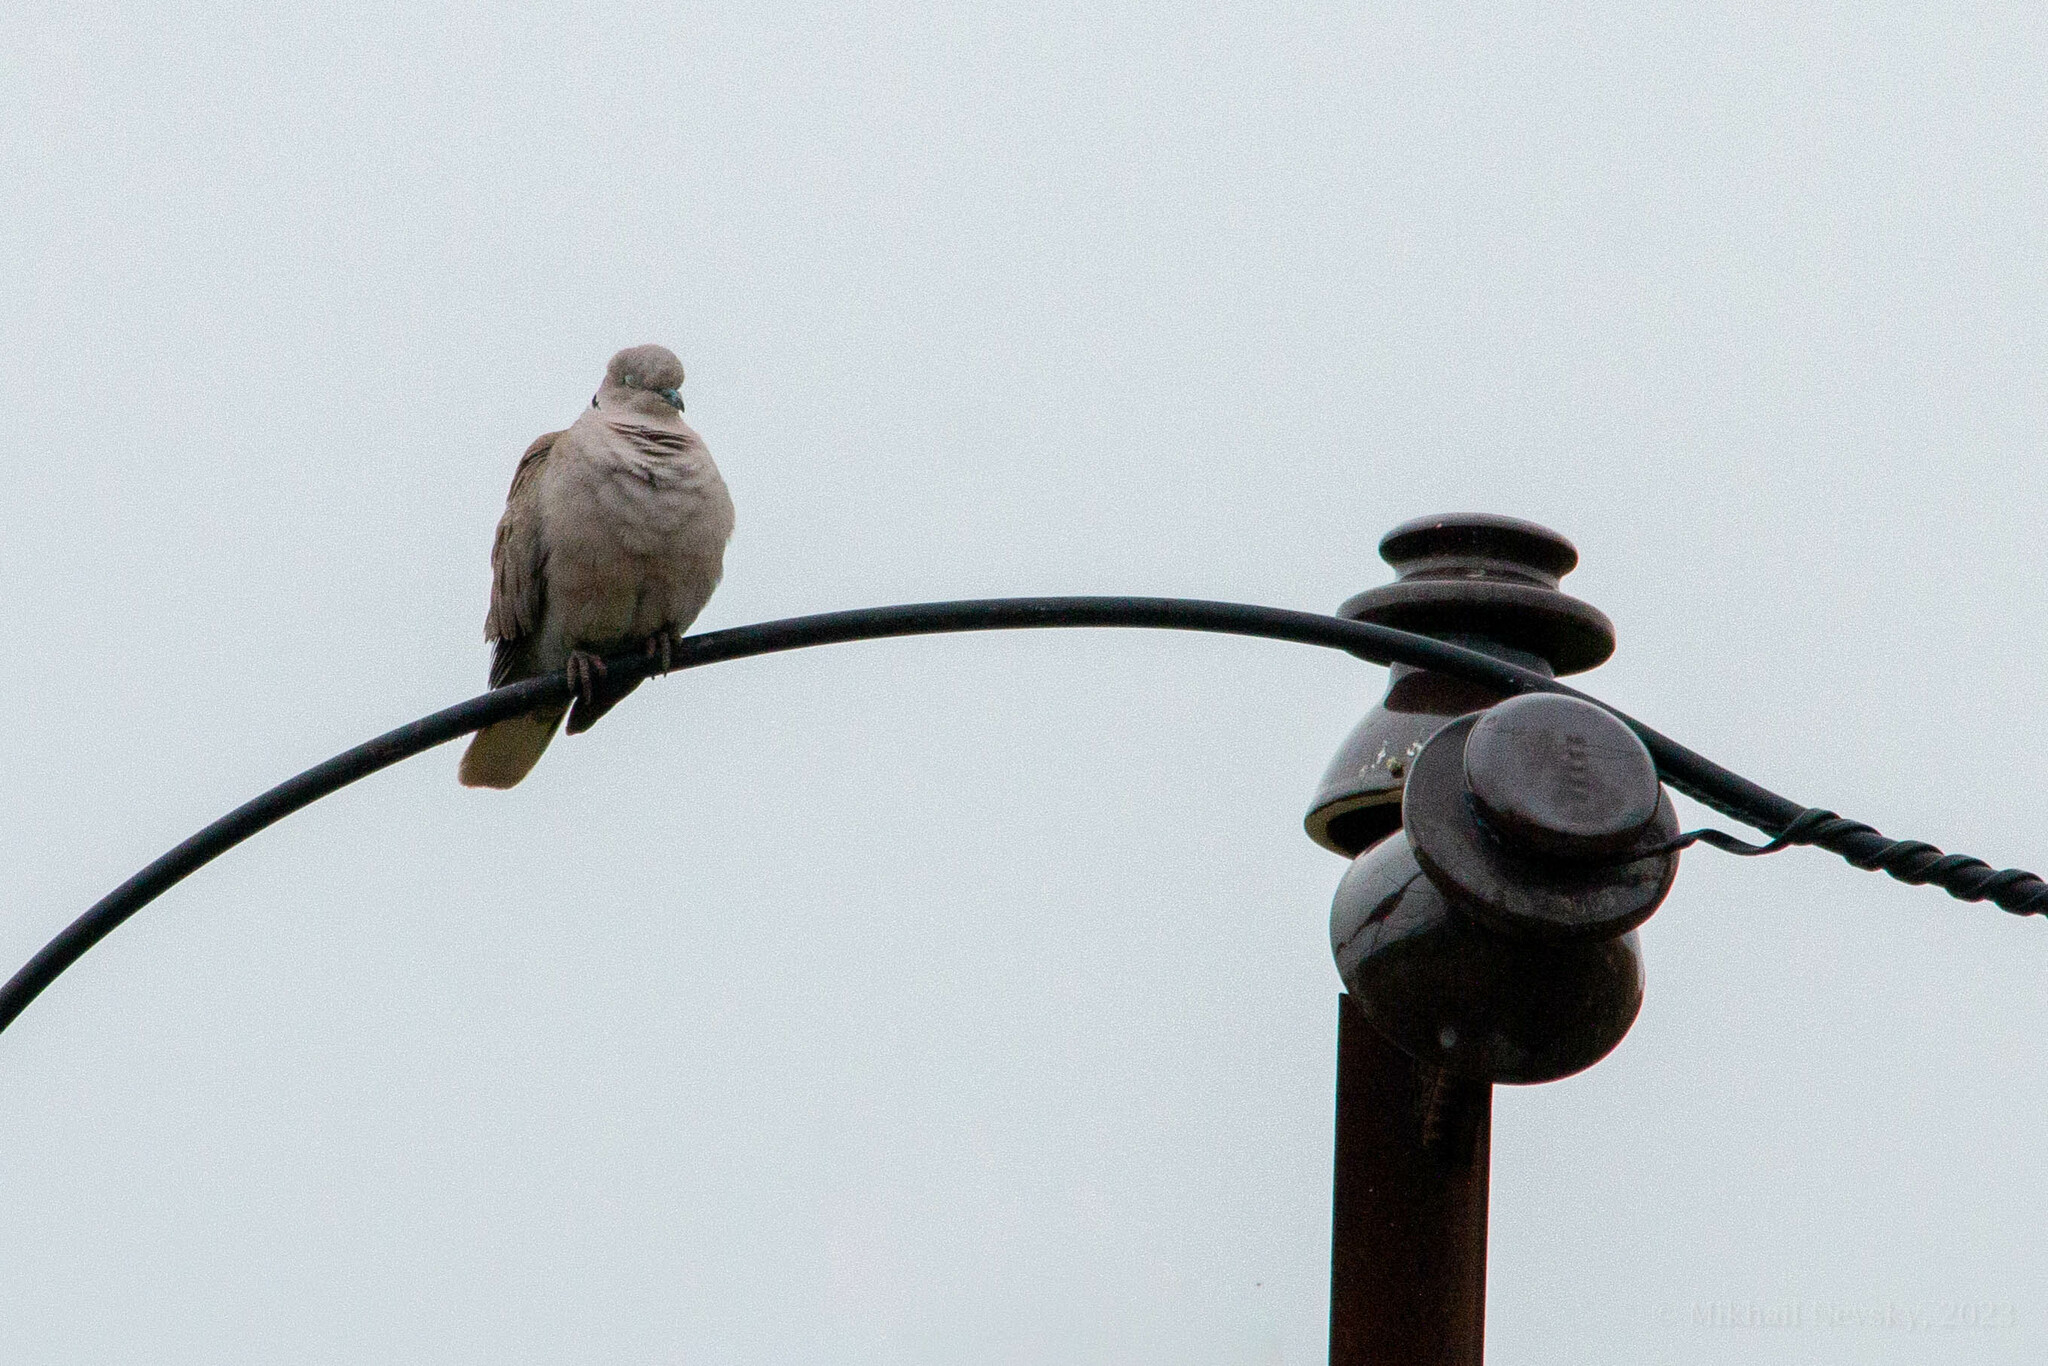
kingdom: Animalia
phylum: Chordata
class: Aves
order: Columbiformes
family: Columbidae
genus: Streptopelia
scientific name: Streptopelia decaocto
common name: Eurasian collared dove
